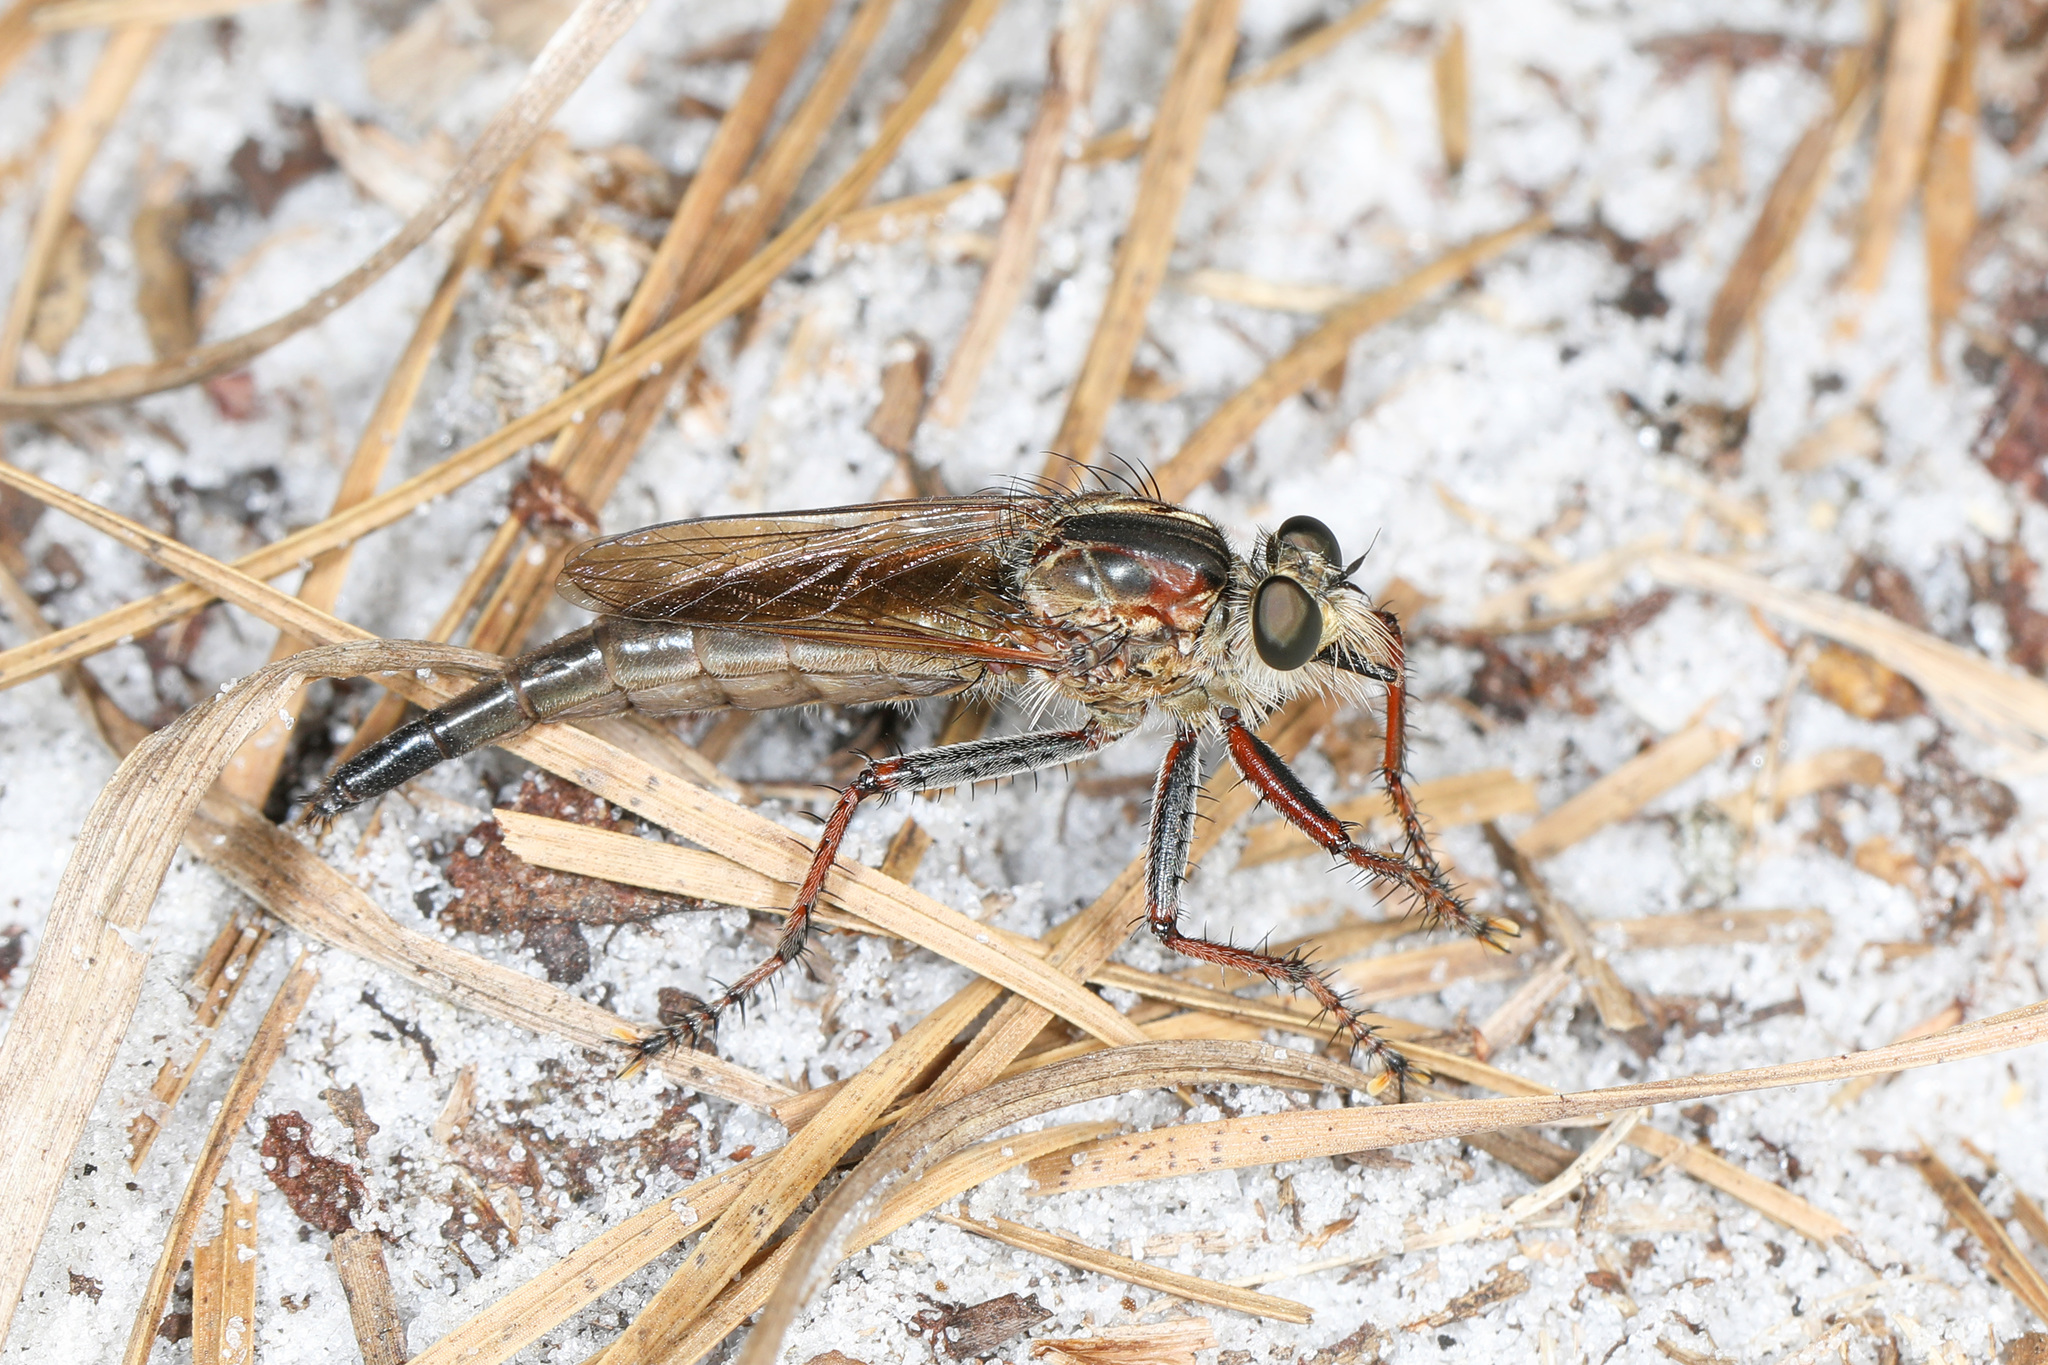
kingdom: Animalia
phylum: Arthropoda
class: Insecta
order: Diptera
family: Asilidae
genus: Proctacanthus
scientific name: Proctacanthus brevipennis
